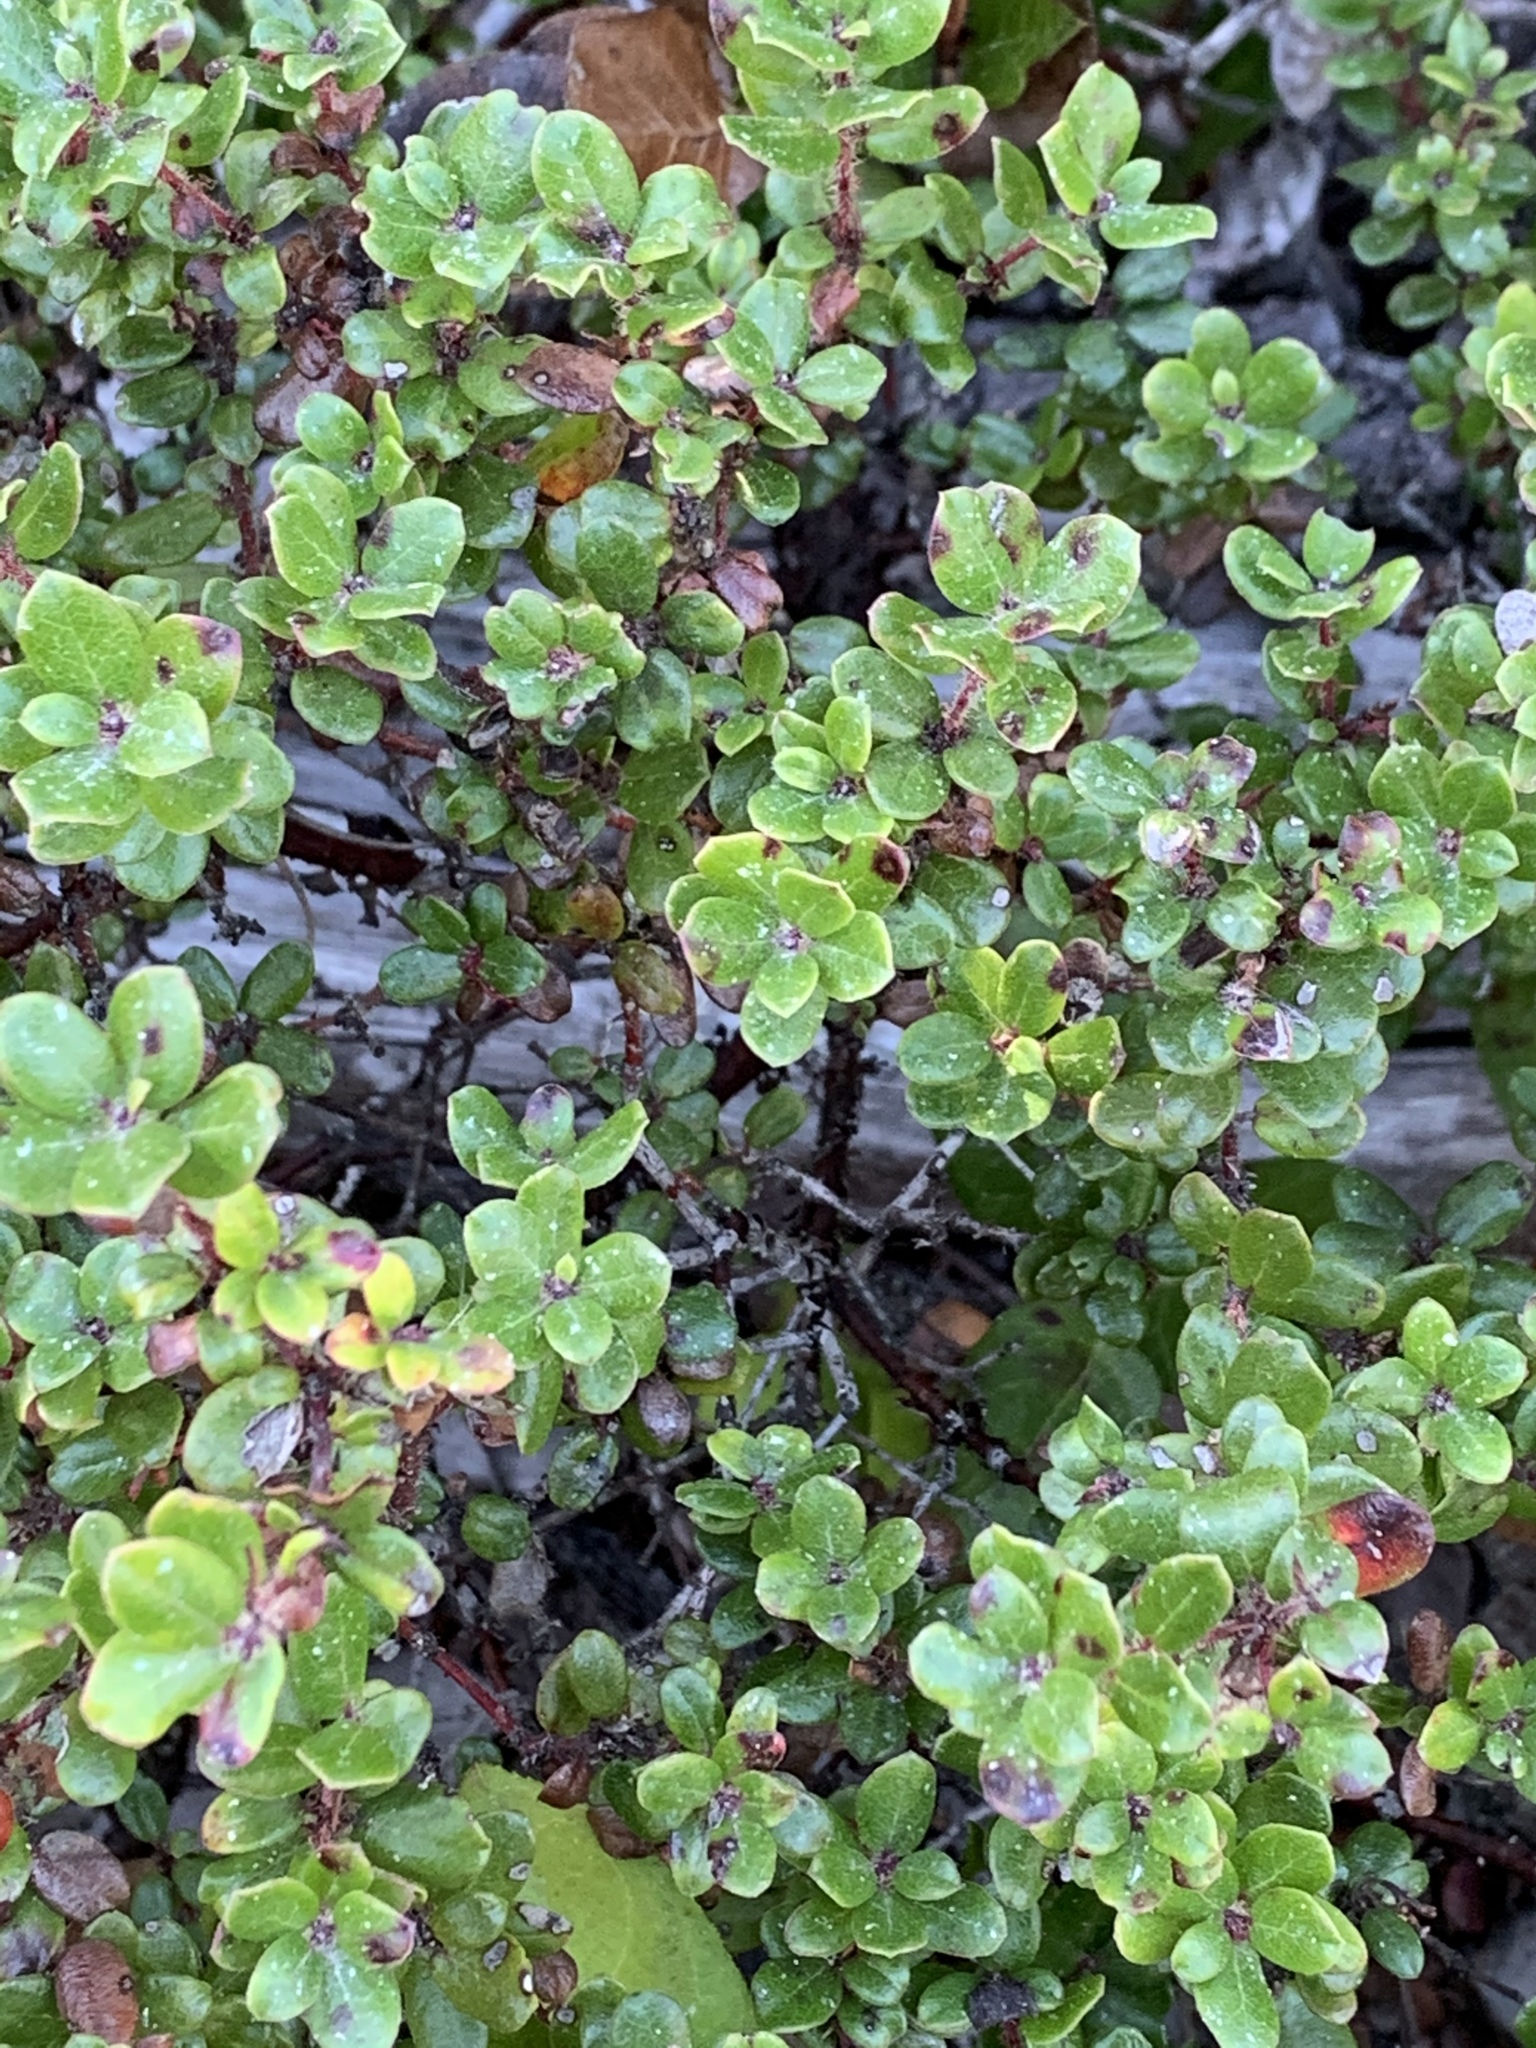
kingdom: Plantae
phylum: Tracheophyta
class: Magnoliopsida
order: Ericales
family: Ericaceae
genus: Arctostaphylos
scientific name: Arctostaphylos nummularia
